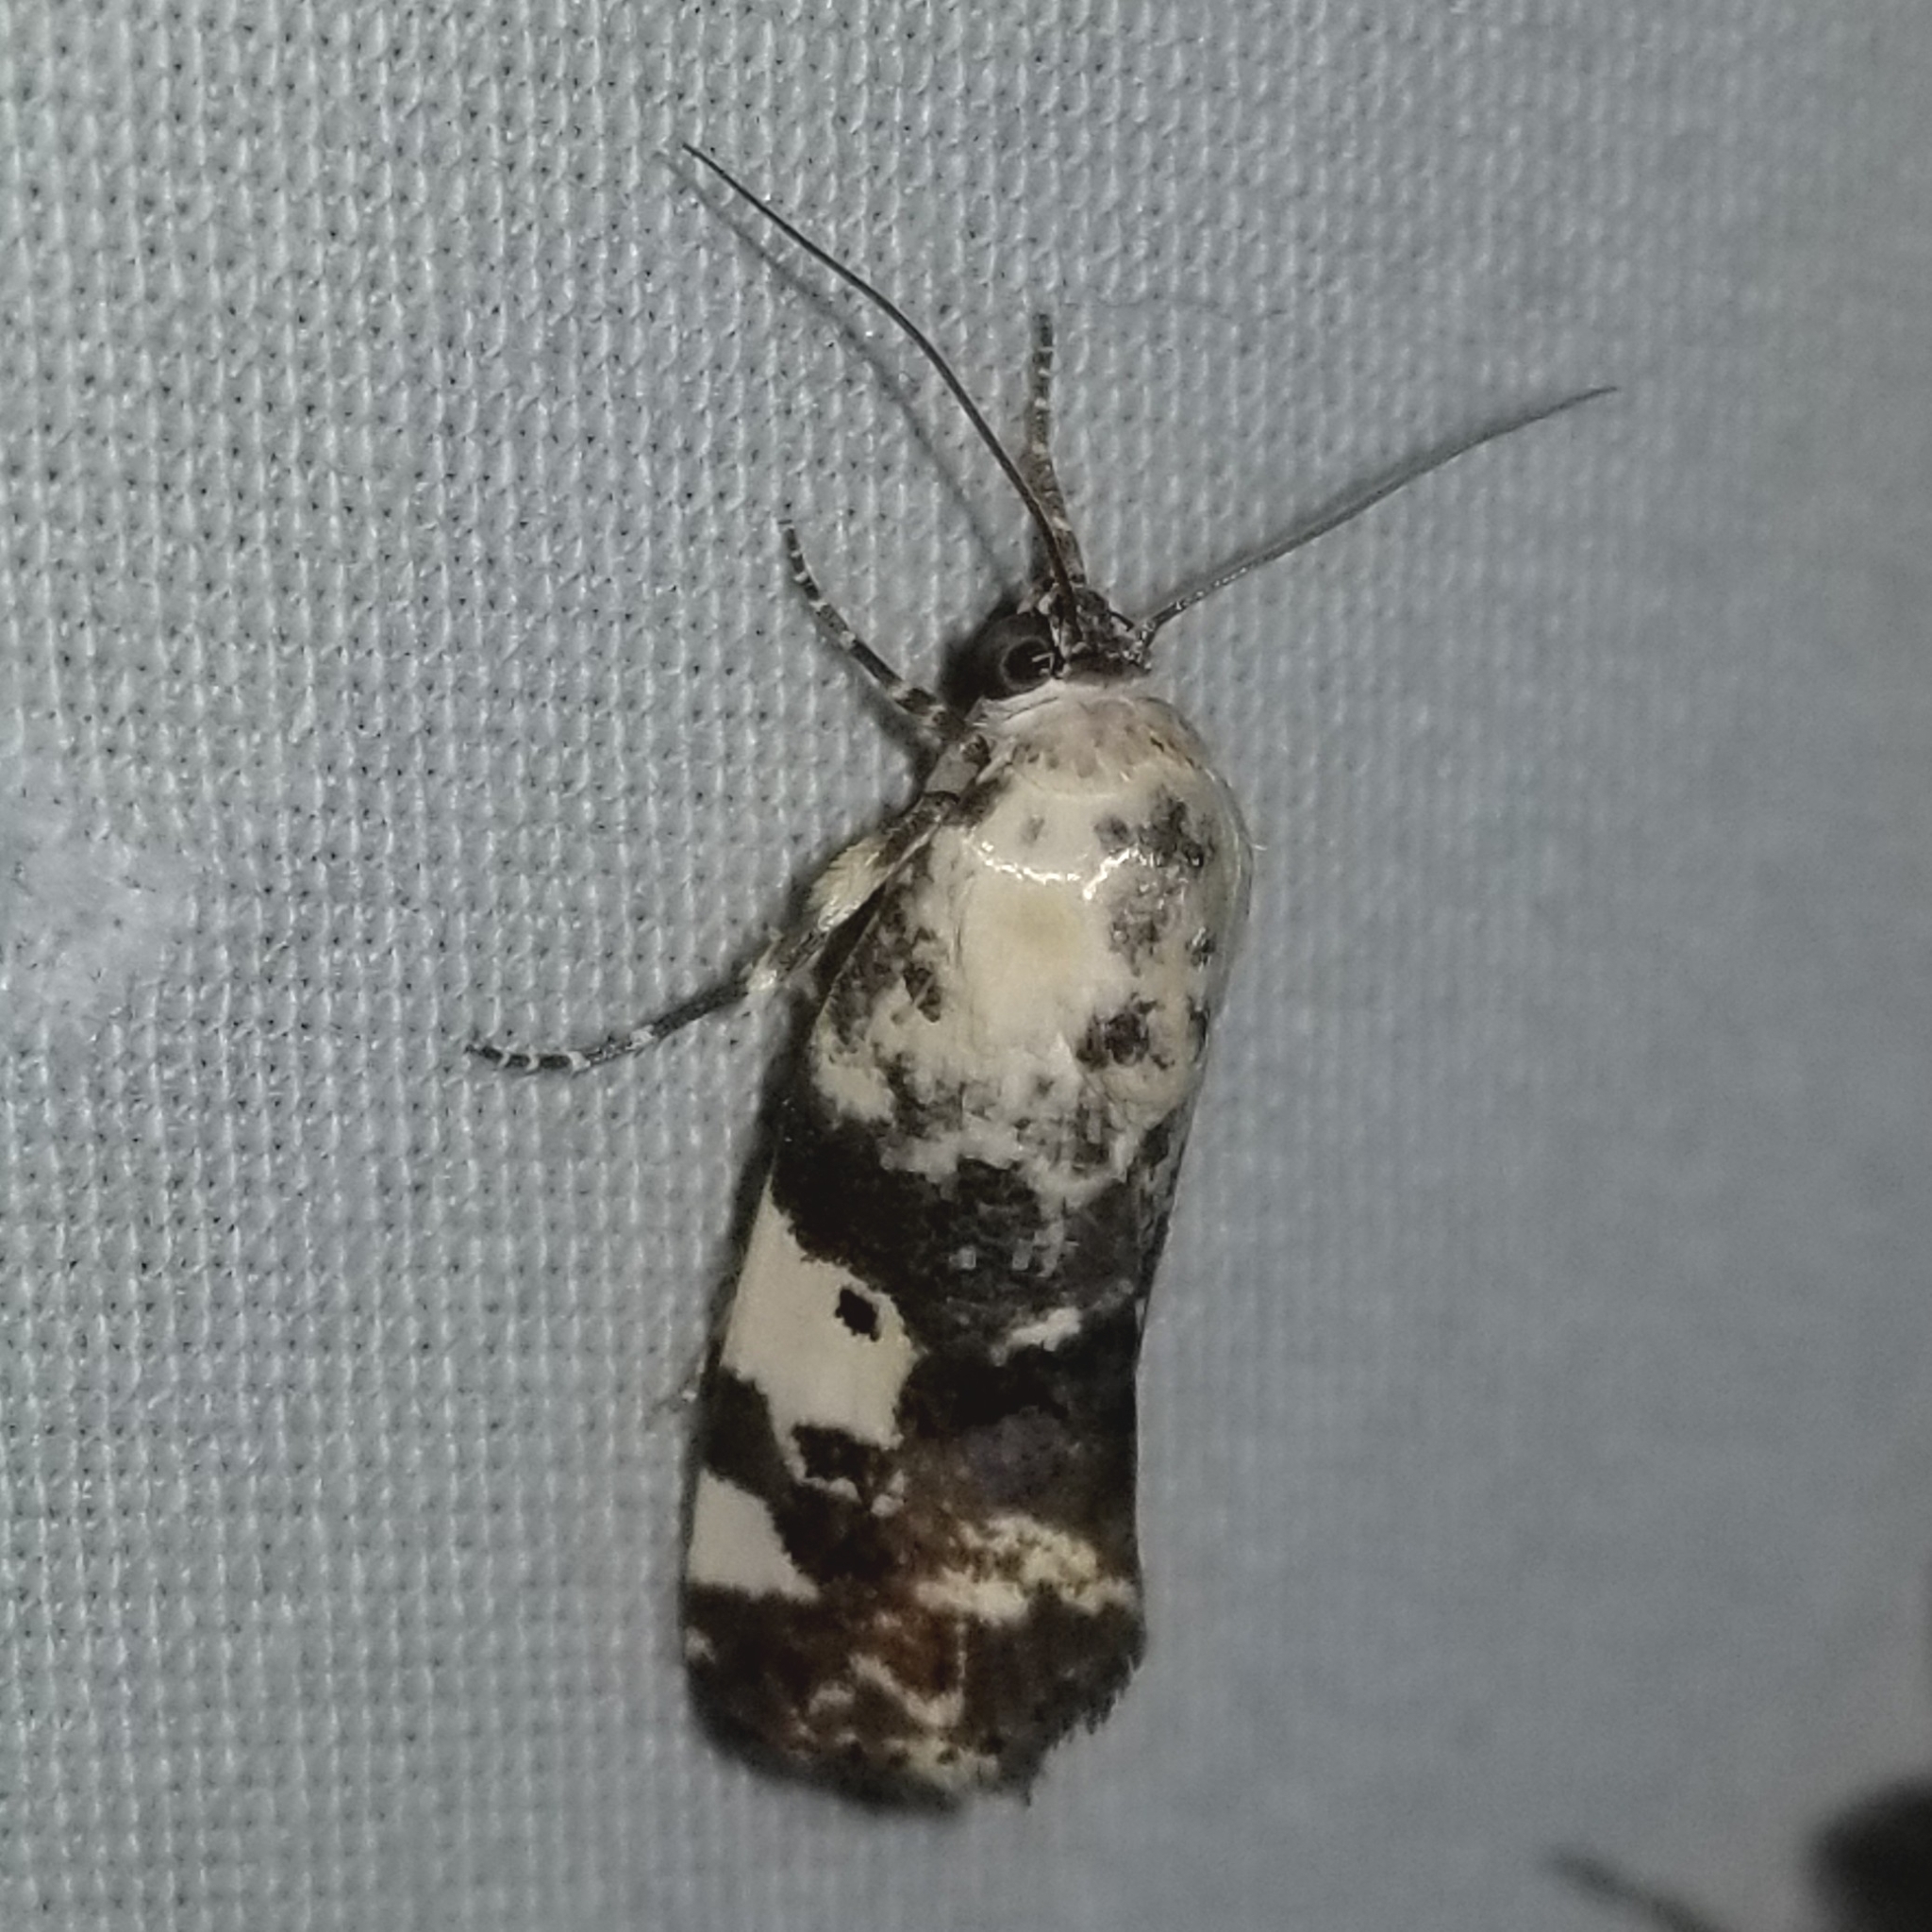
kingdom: Animalia
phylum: Arthropoda
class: Insecta
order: Lepidoptera
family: Noctuidae
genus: Acontia
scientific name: Acontia aprica
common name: Nun
